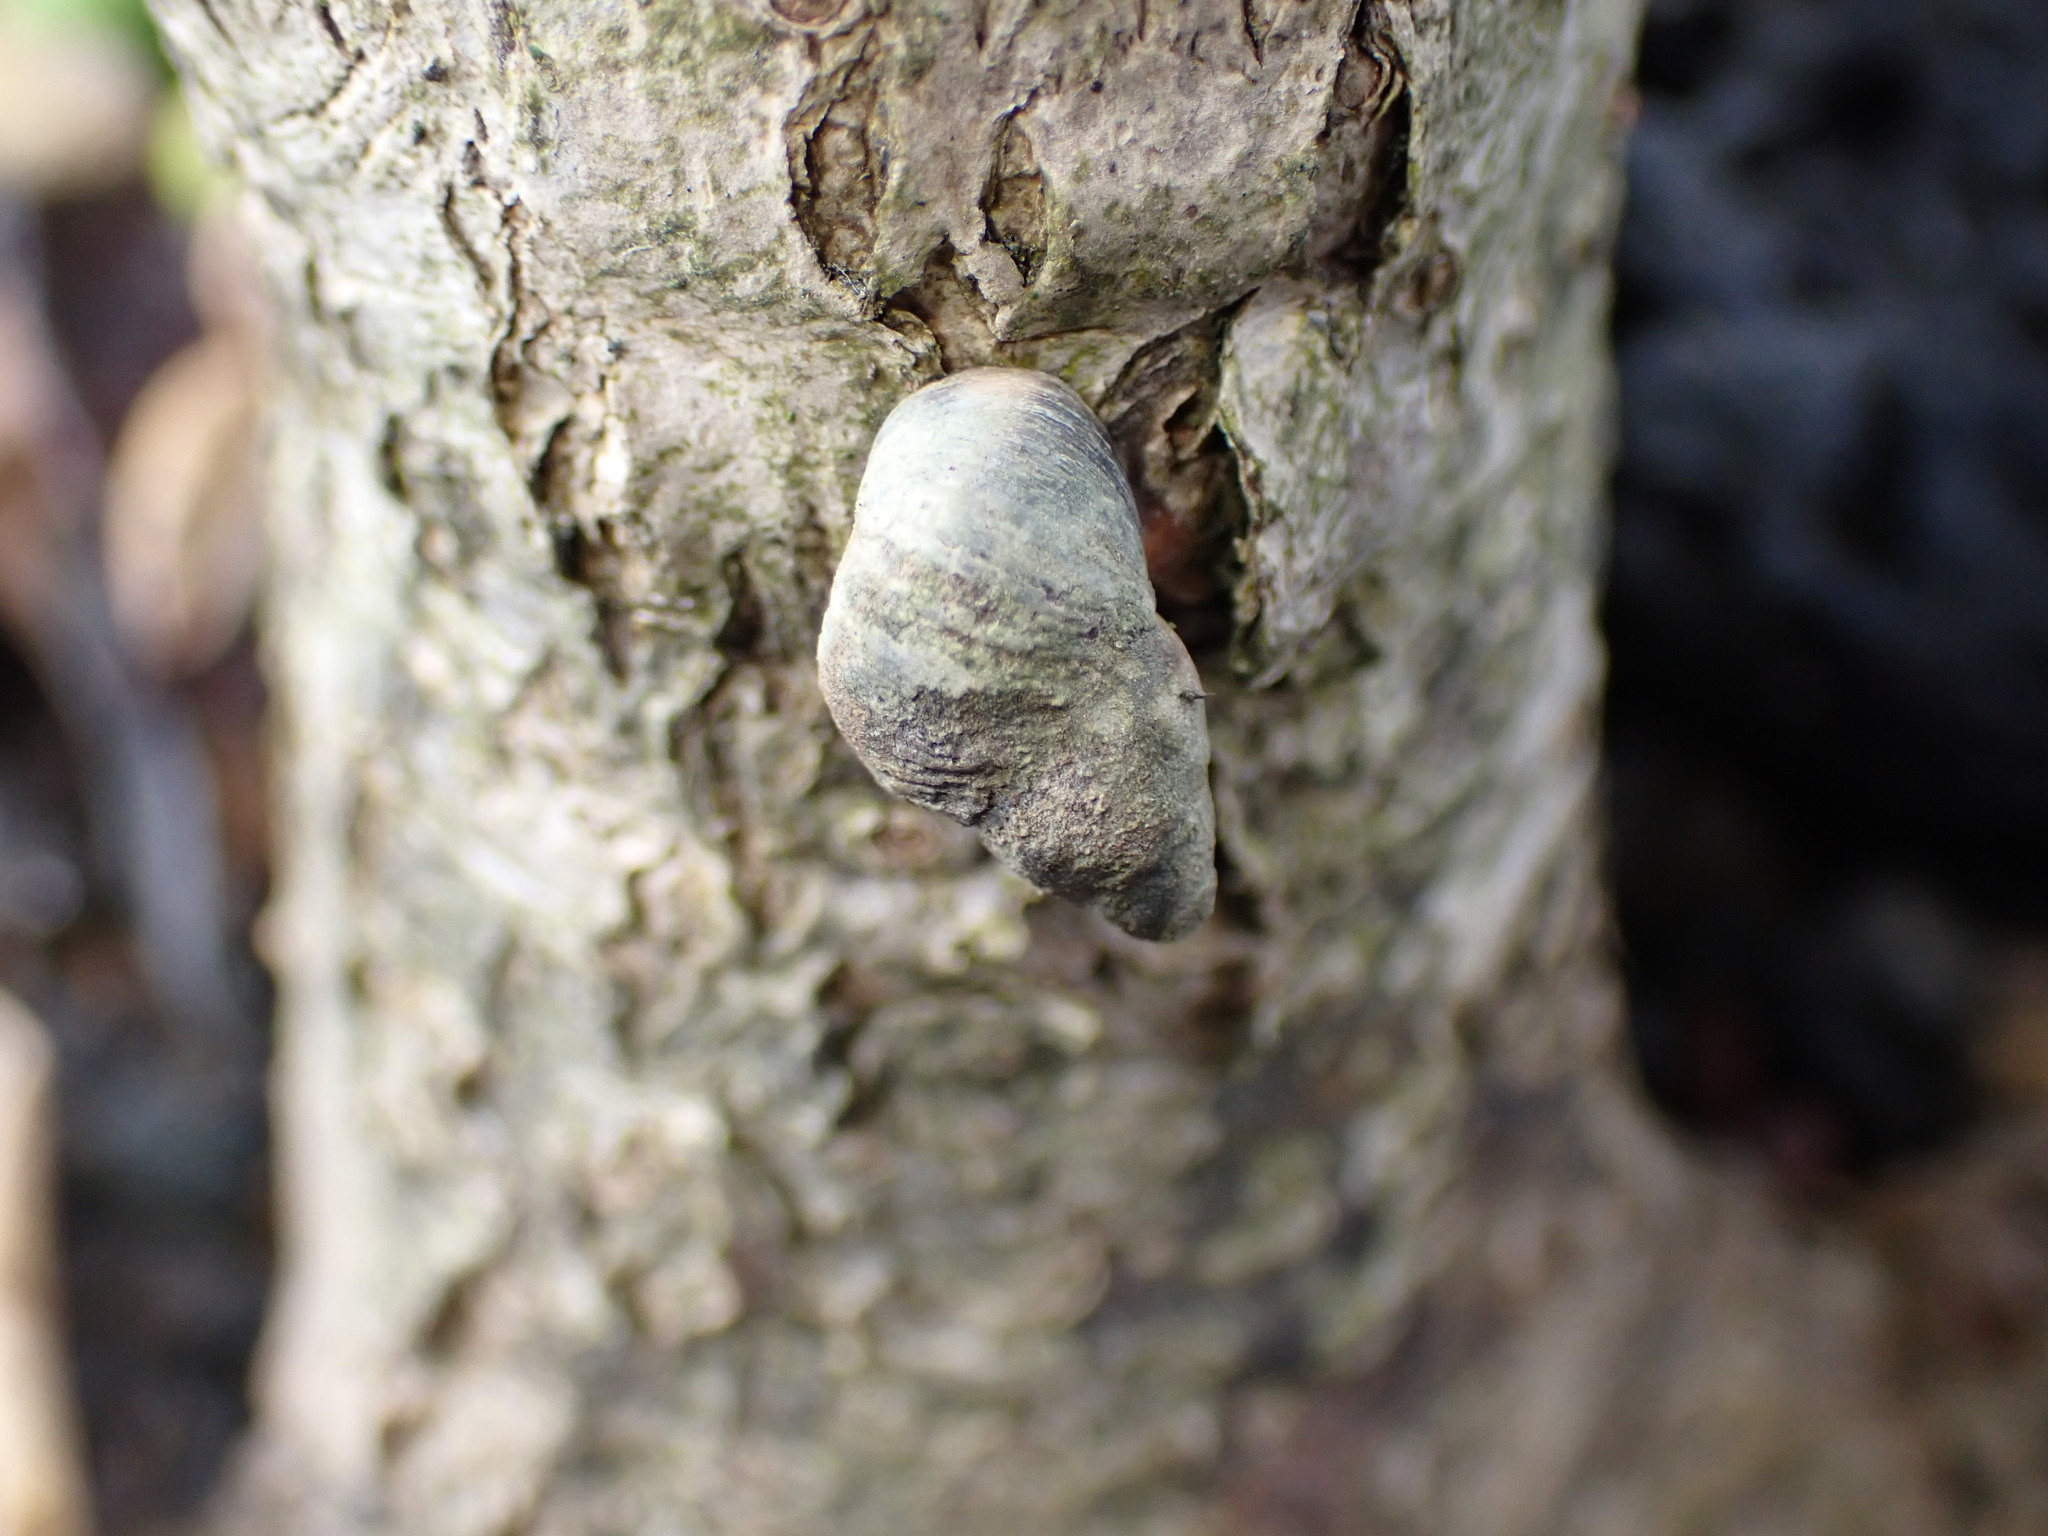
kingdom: Animalia
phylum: Mollusca
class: Gastropoda
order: Littorinimorpha
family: Littorinidae
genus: Austrolittorina
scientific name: Austrolittorina antipodum
